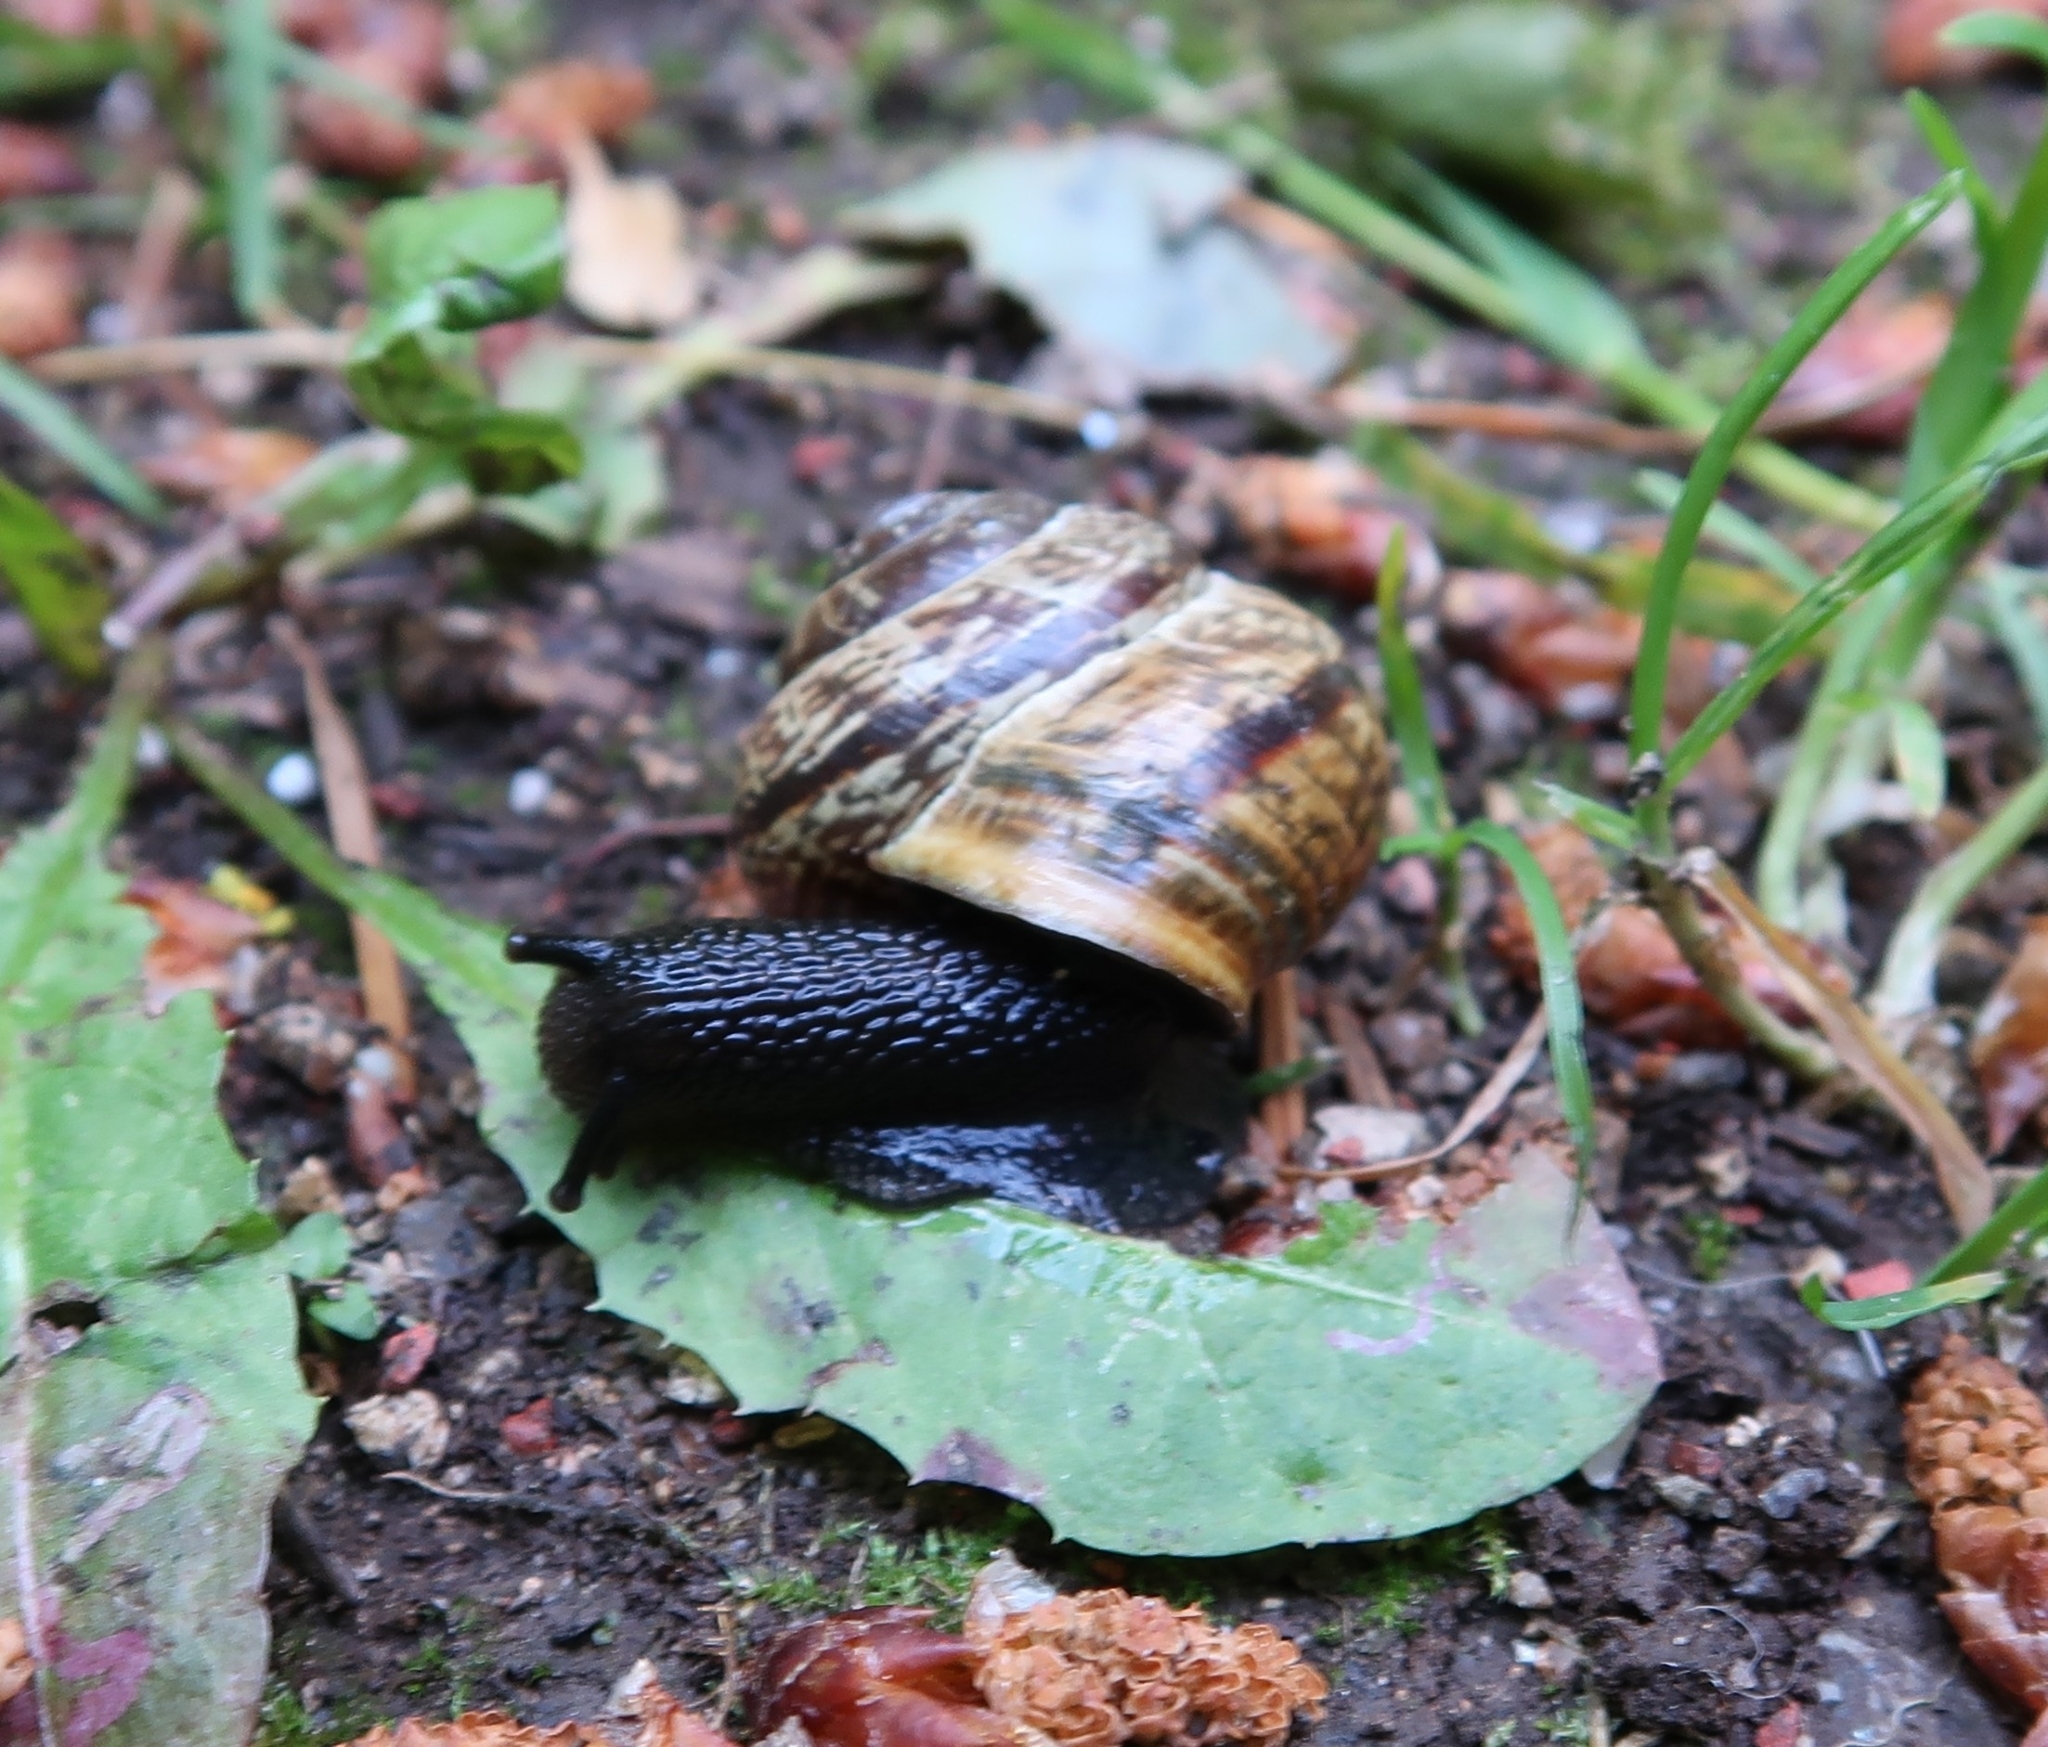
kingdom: Animalia
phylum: Mollusca
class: Gastropoda
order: Stylommatophora
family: Helicidae
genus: Arianta
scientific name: Arianta arbustorum
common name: Copse snail
